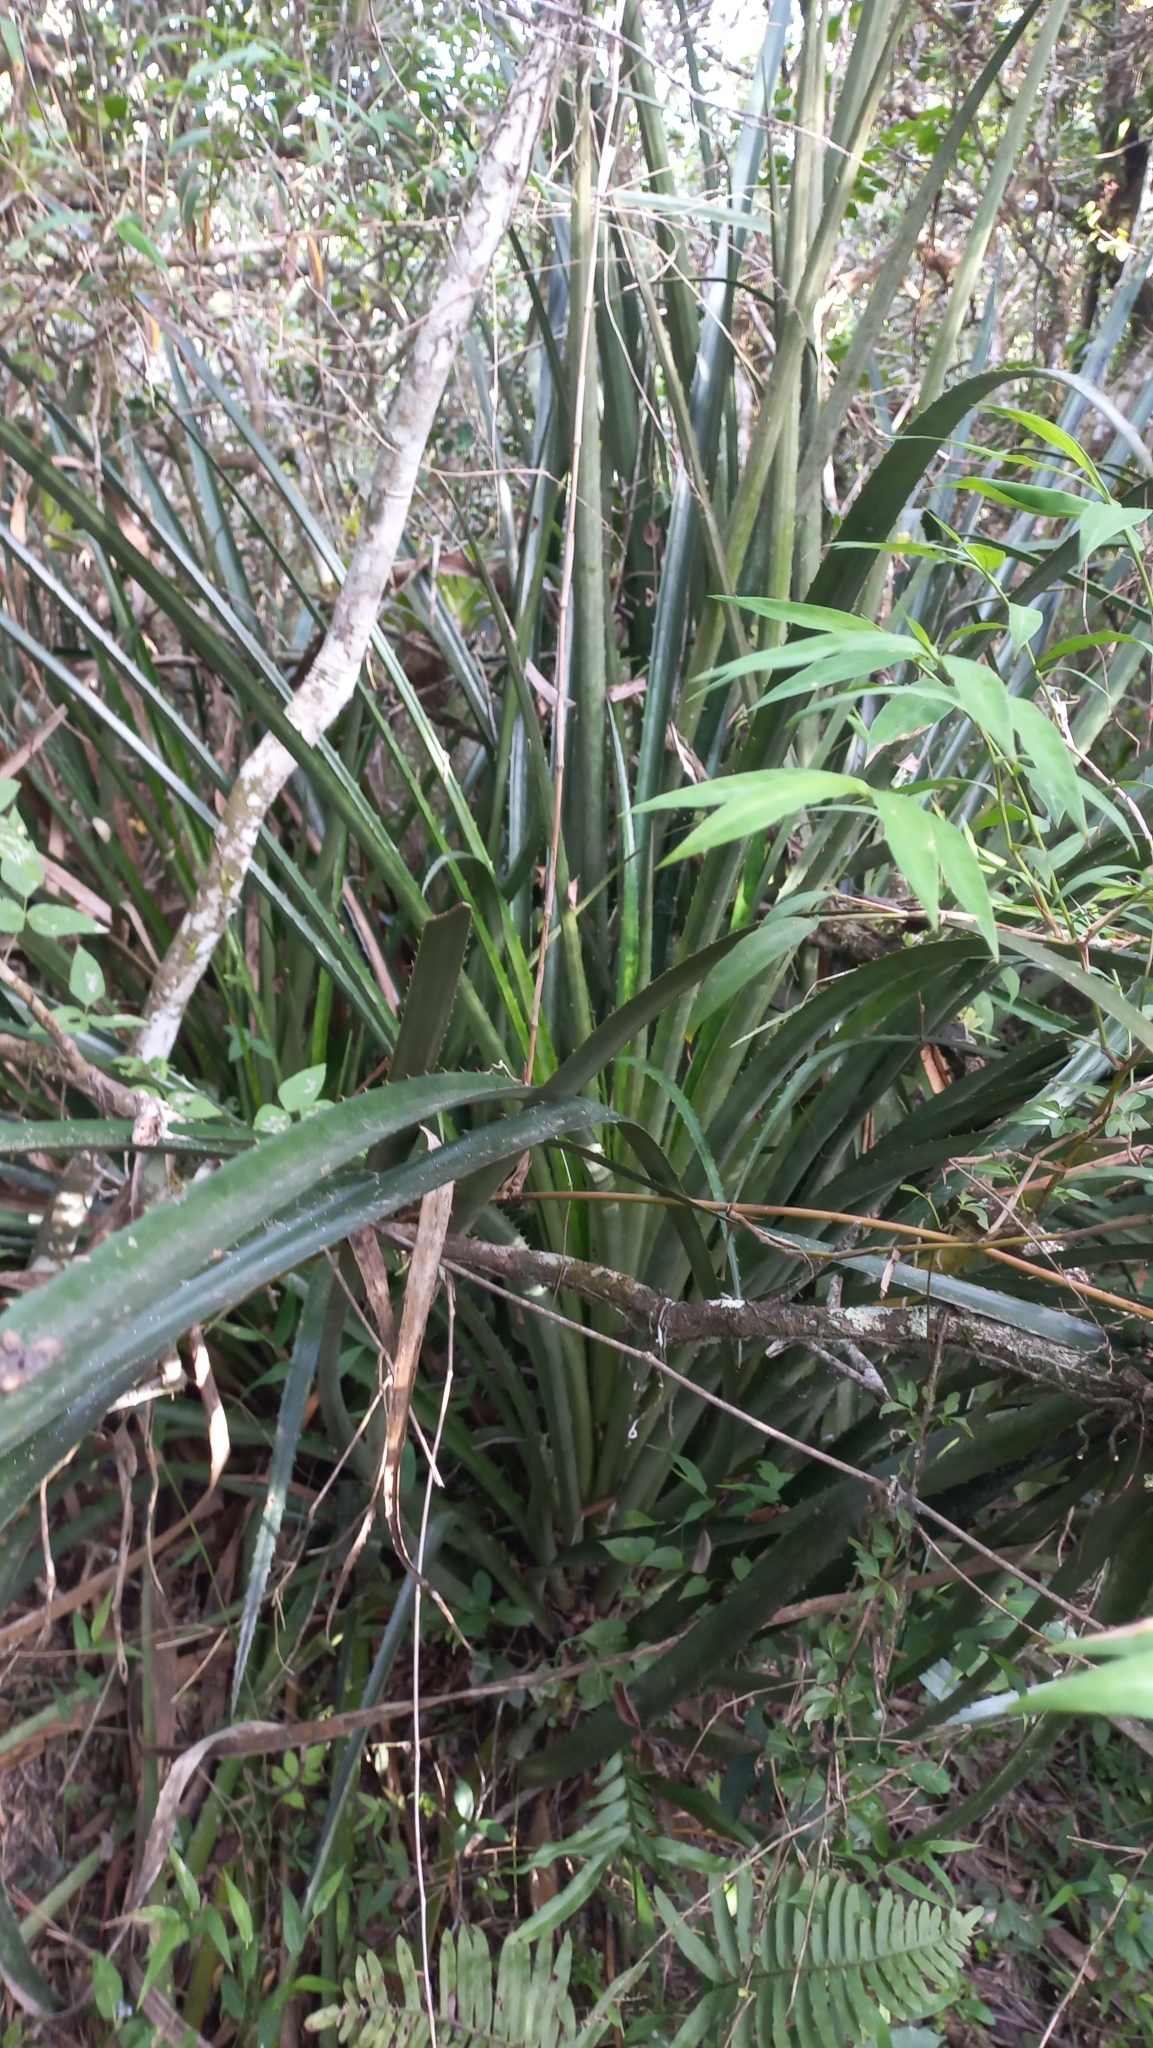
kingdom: Plantae
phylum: Tracheophyta
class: Liliopsida
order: Poales
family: Bromeliaceae
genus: Bromelia
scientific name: Bromelia antiacantha
